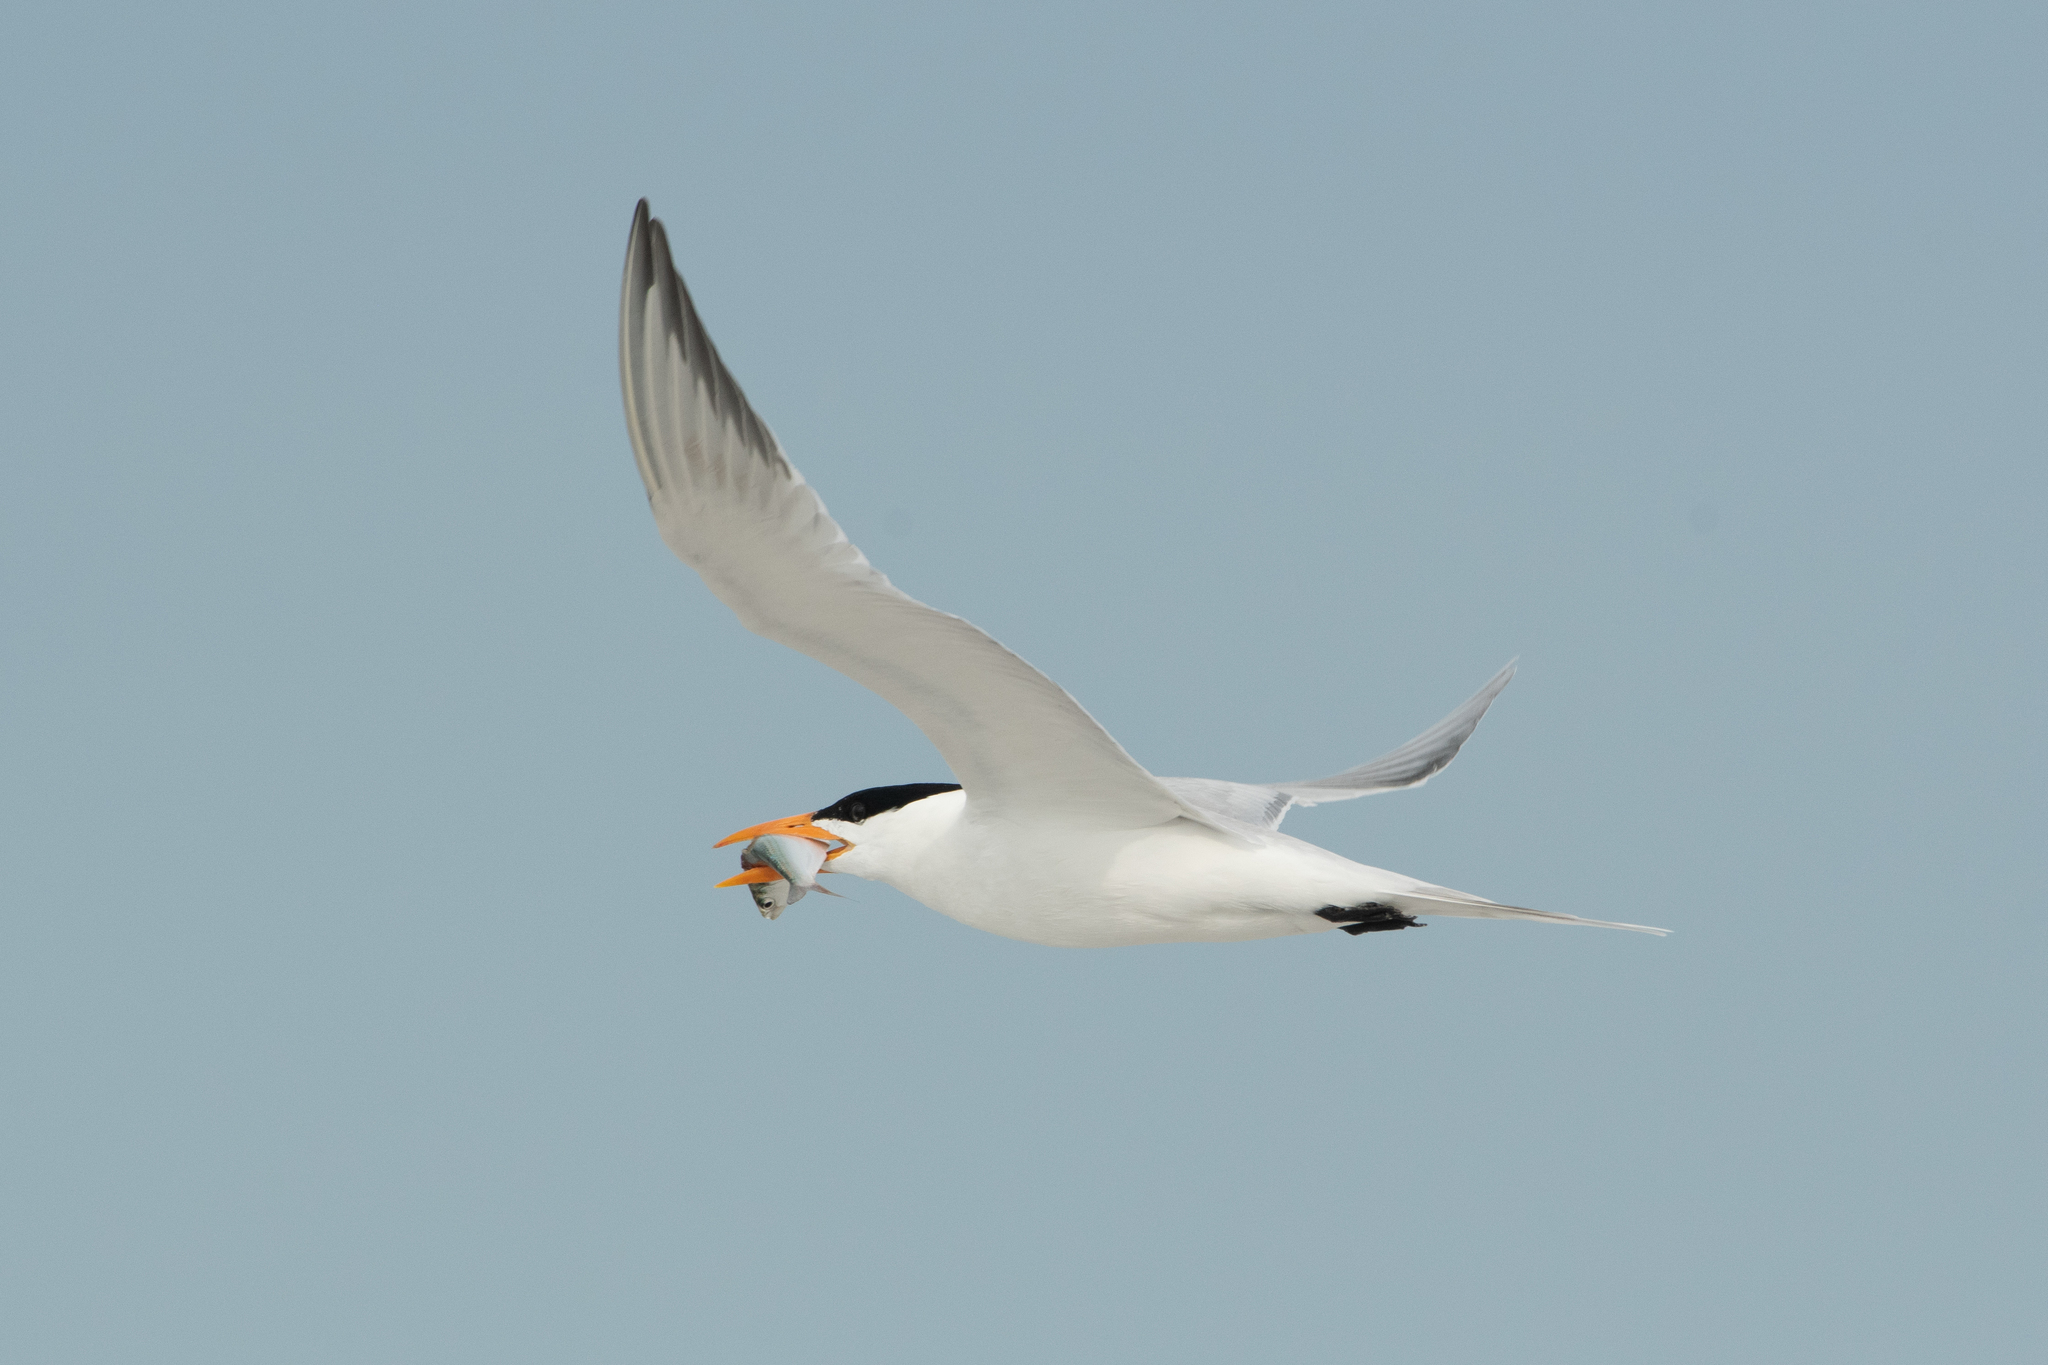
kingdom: Animalia
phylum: Chordata
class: Aves
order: Charadriiformes
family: Laridae
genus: Thalasseus
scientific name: Thalasseus maximus
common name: Royal tern
